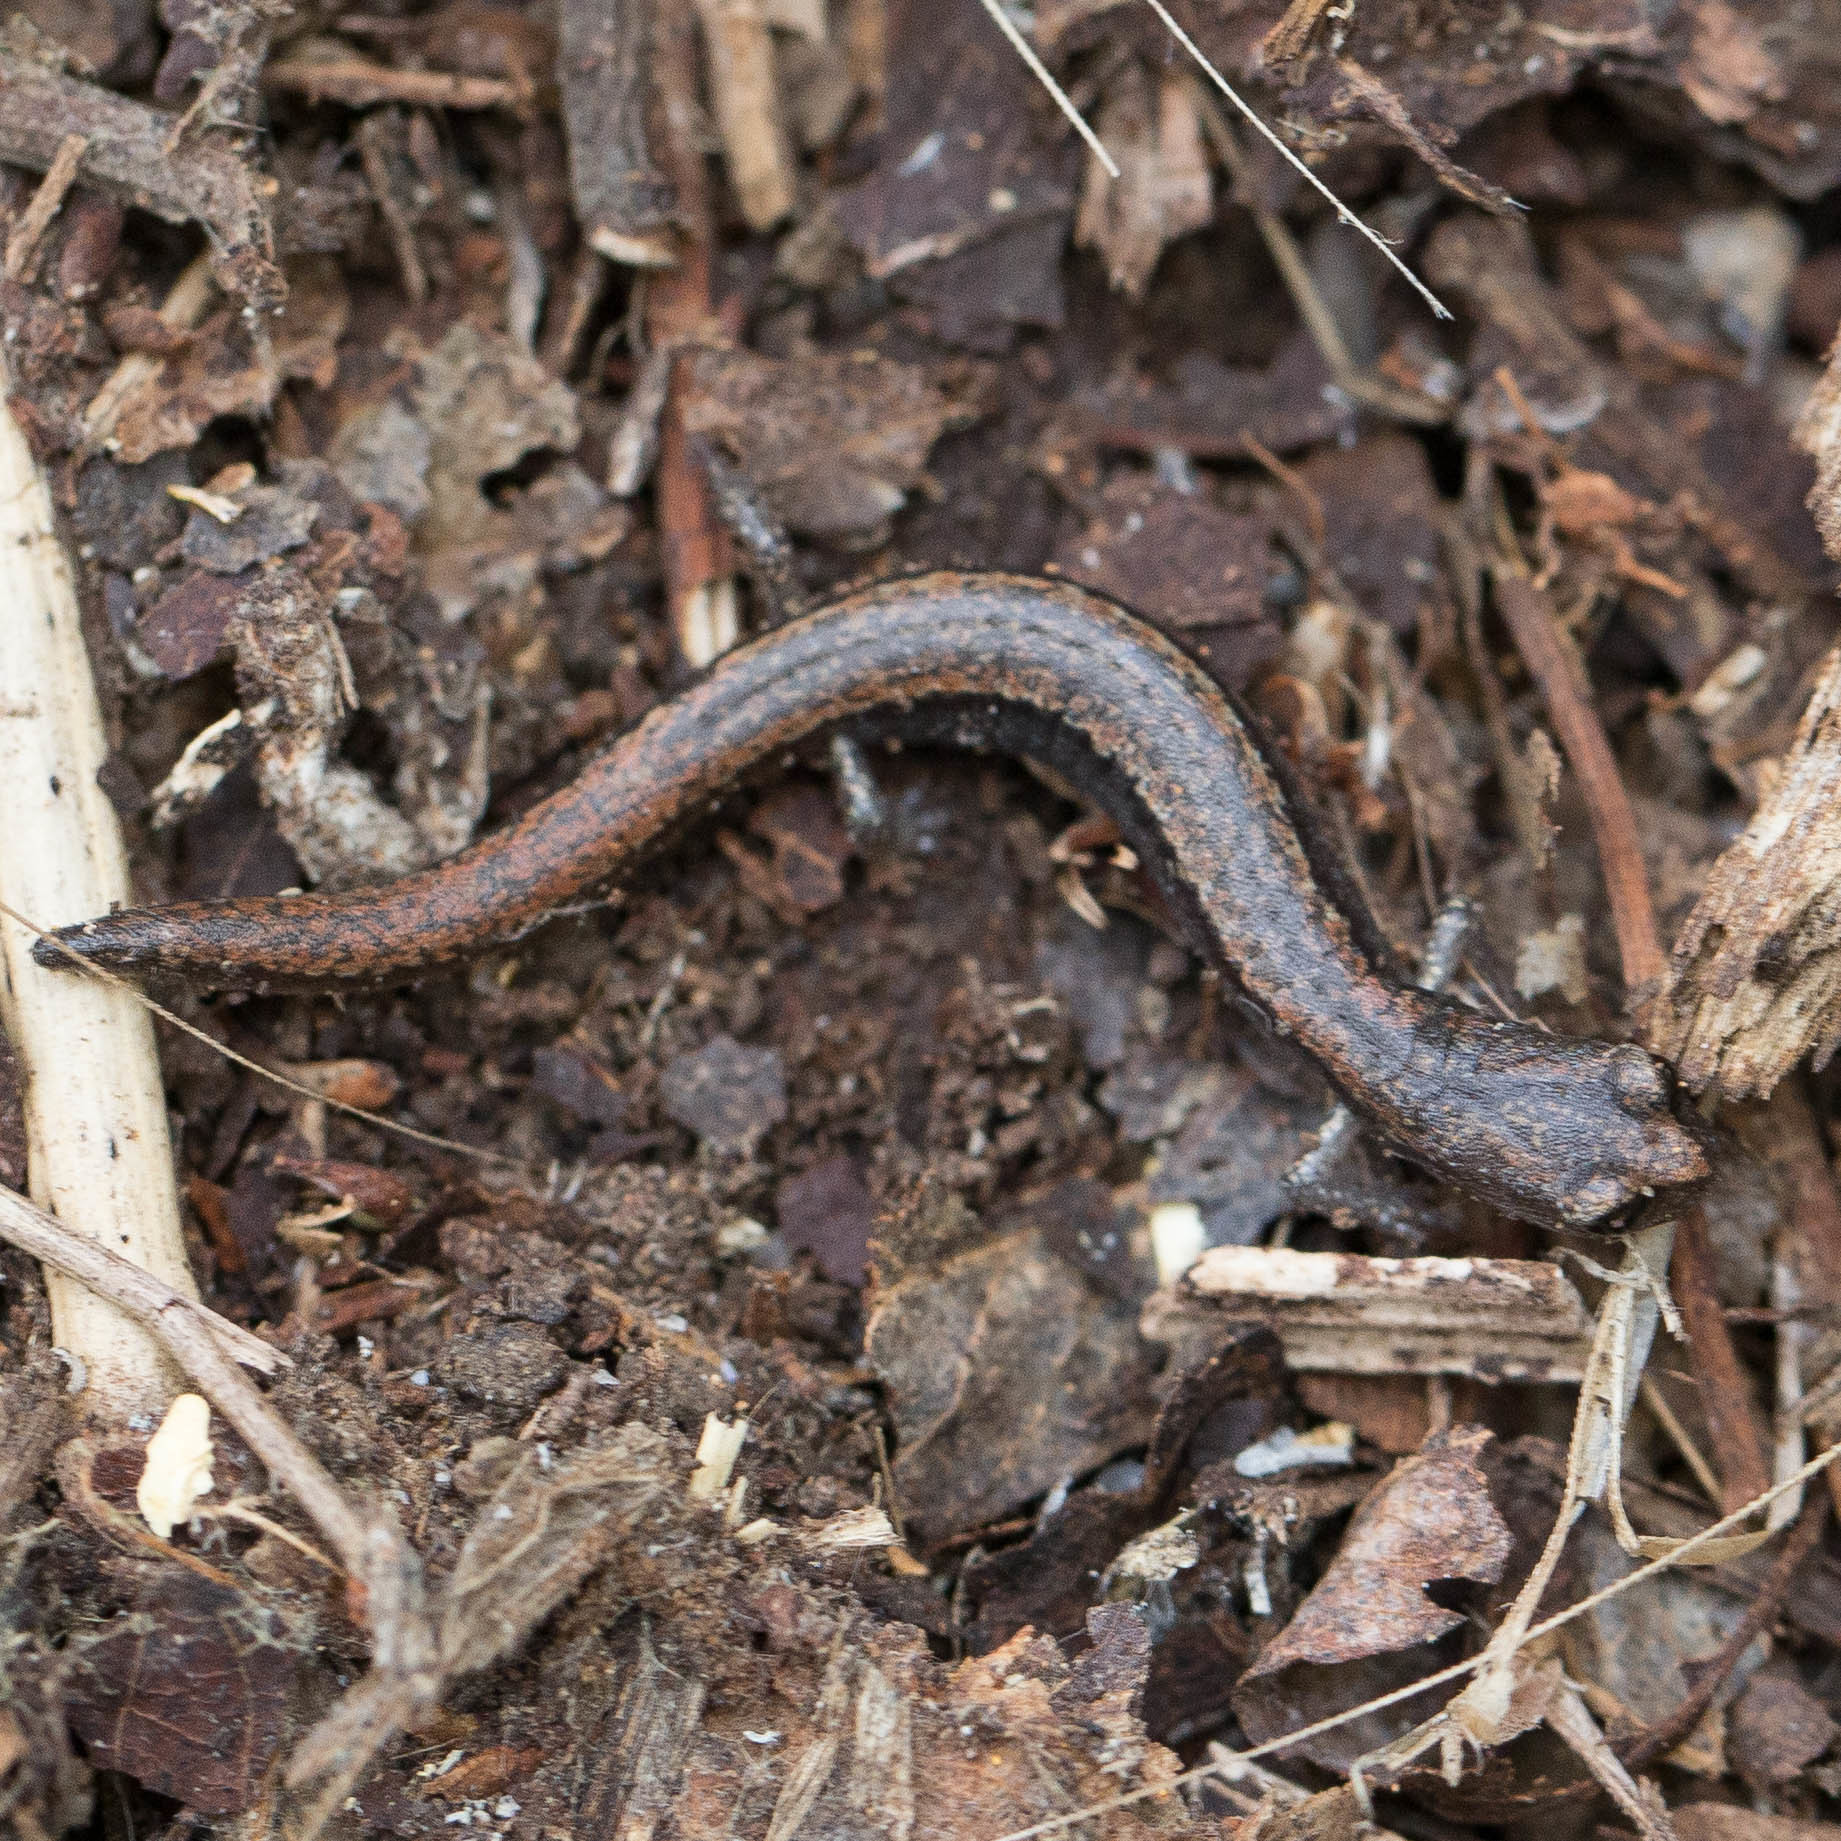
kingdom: Animalia
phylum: Chordata
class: Amphibia
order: Caudata
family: Plethodontidae
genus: Batrachoseps
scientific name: Batrachoseps pacificus
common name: Channel islands slender salamander
